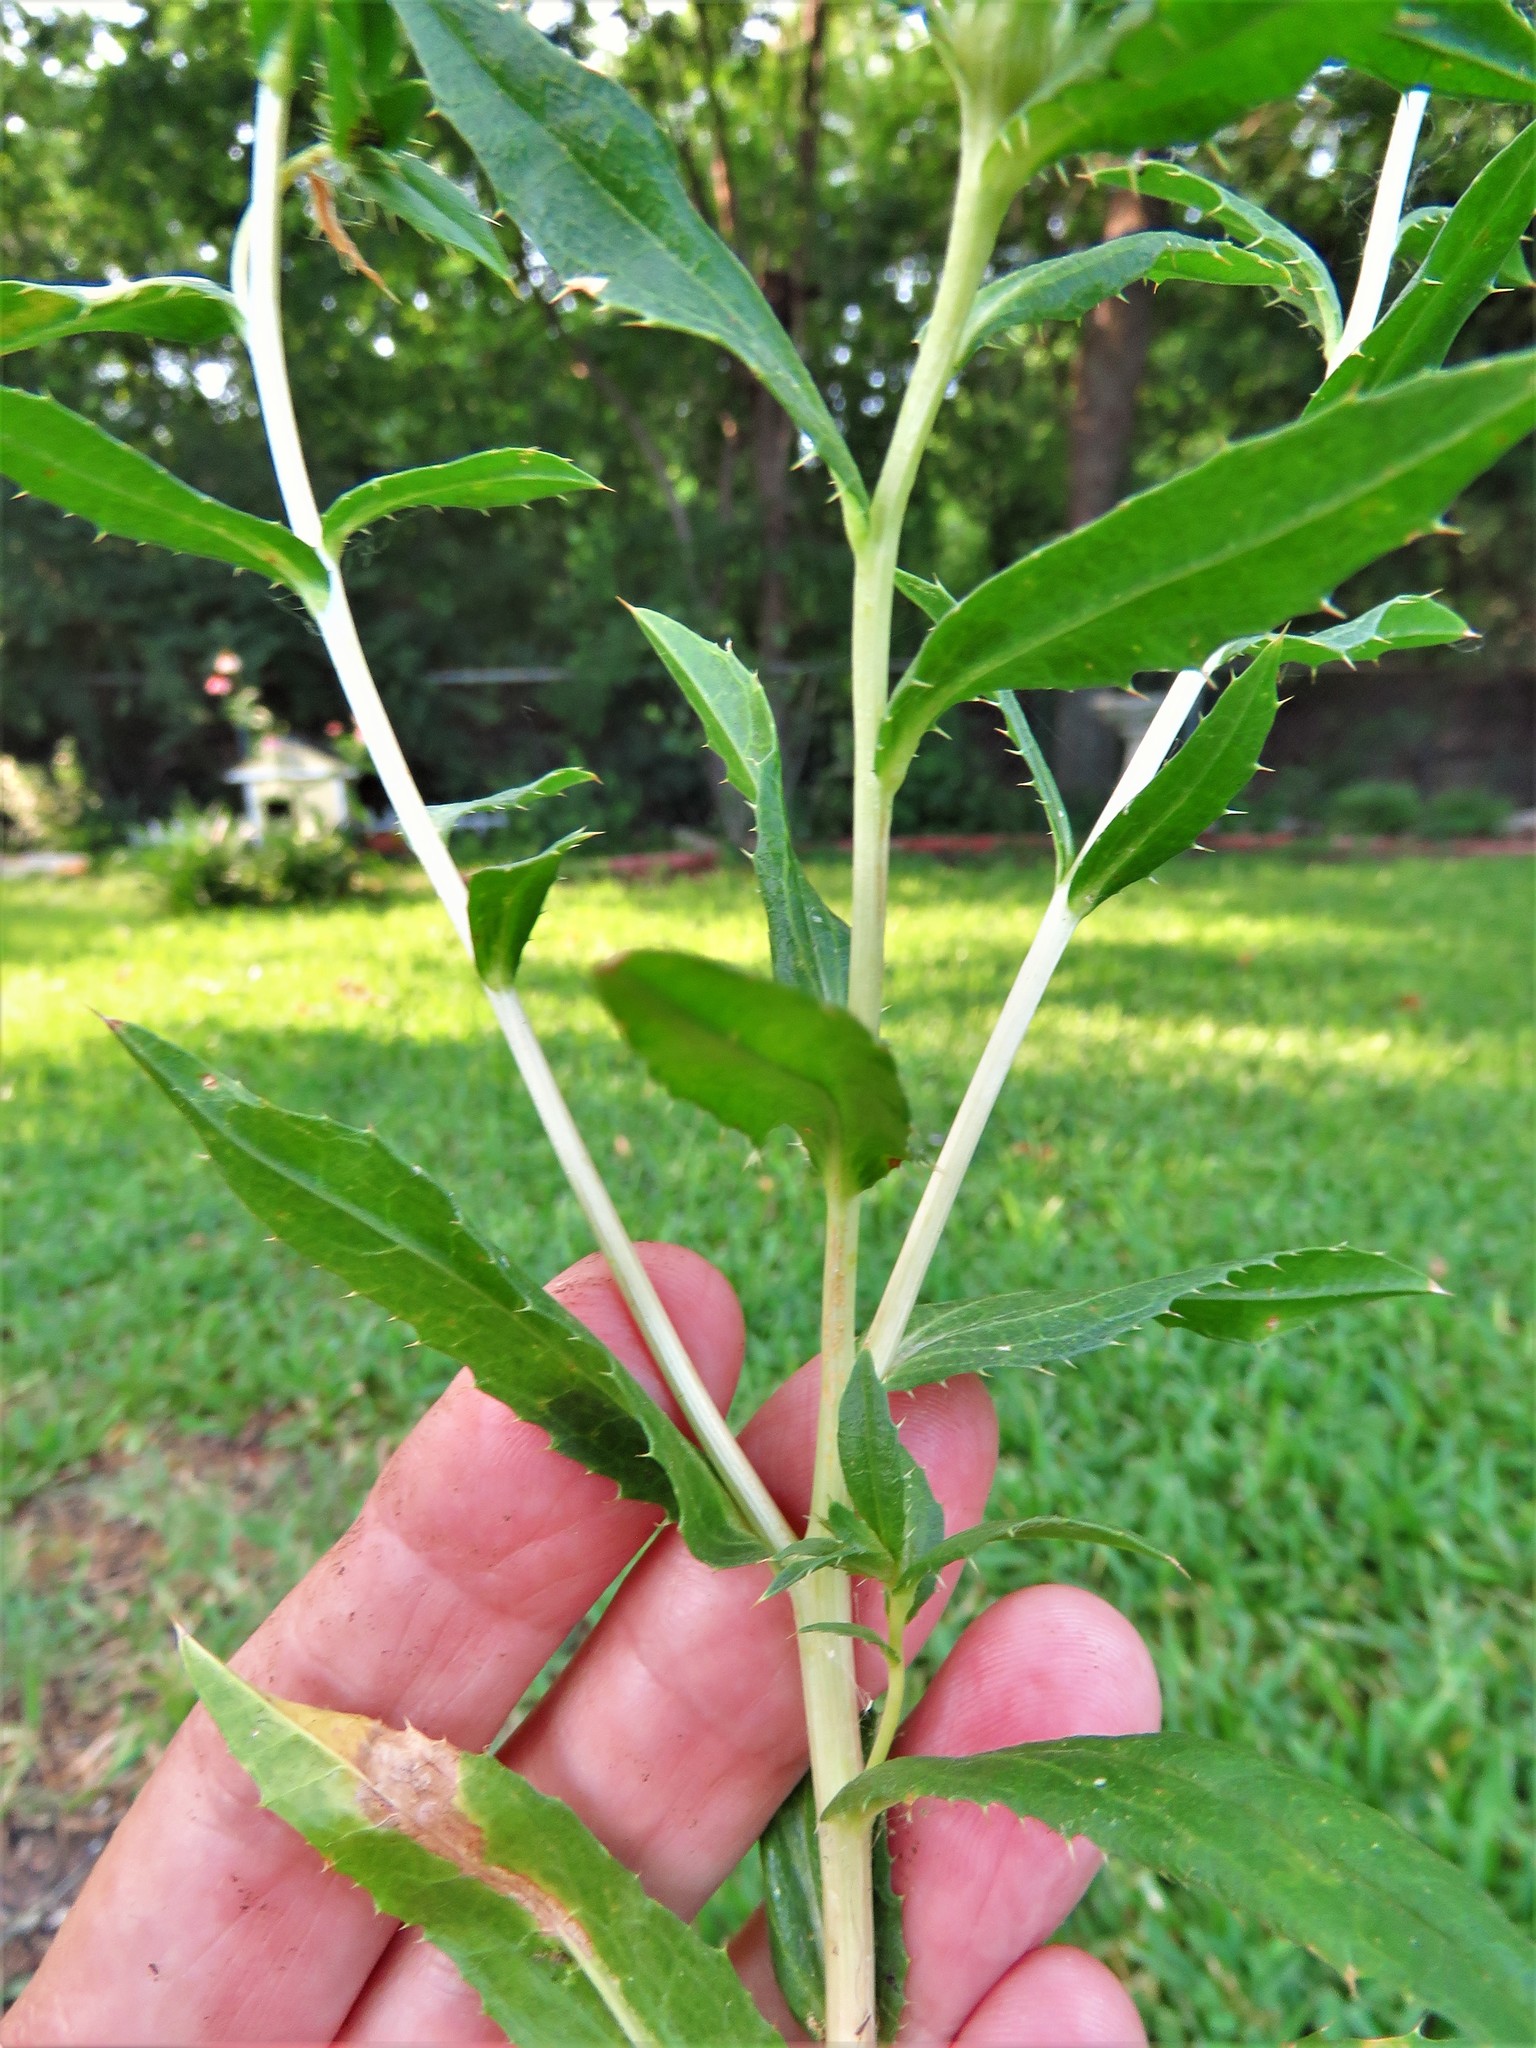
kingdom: Plantae
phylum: Tracheophyta
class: Magnoliopsida
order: Asterales
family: Asteraceae
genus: Carthamus
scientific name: Carthamus tinctorius
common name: Safflower
